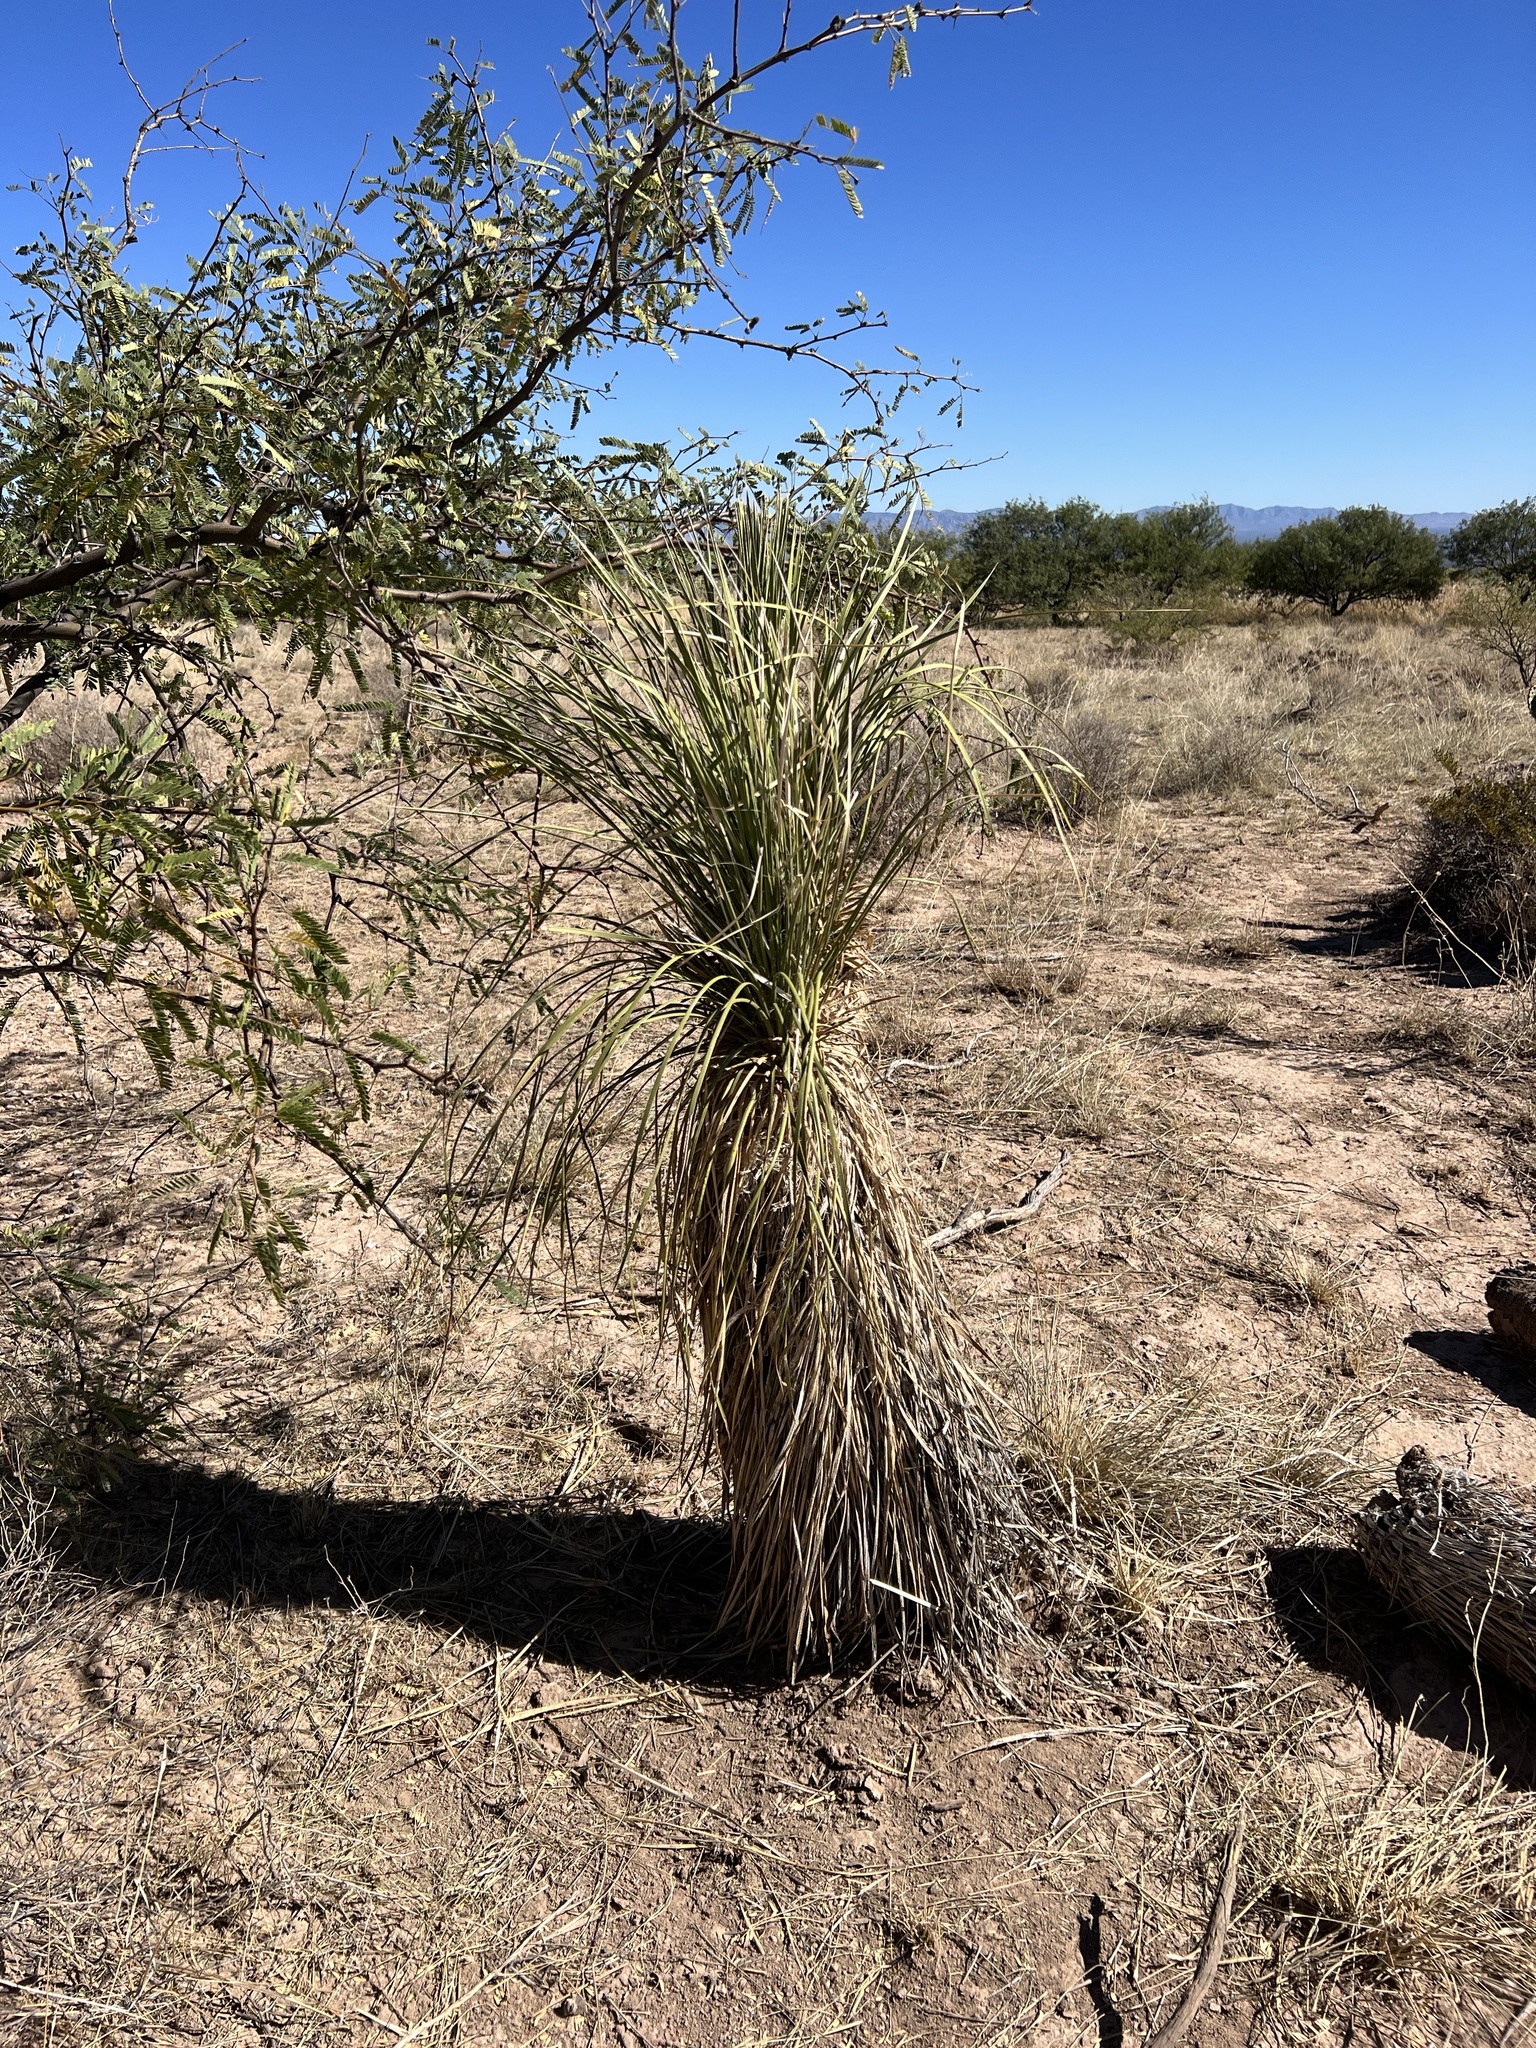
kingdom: Plantae
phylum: Tracheophyta
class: Liliopsida
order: Asparagales
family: Asparagaceae
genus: Yucca
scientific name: Yucca elata
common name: Palmella
